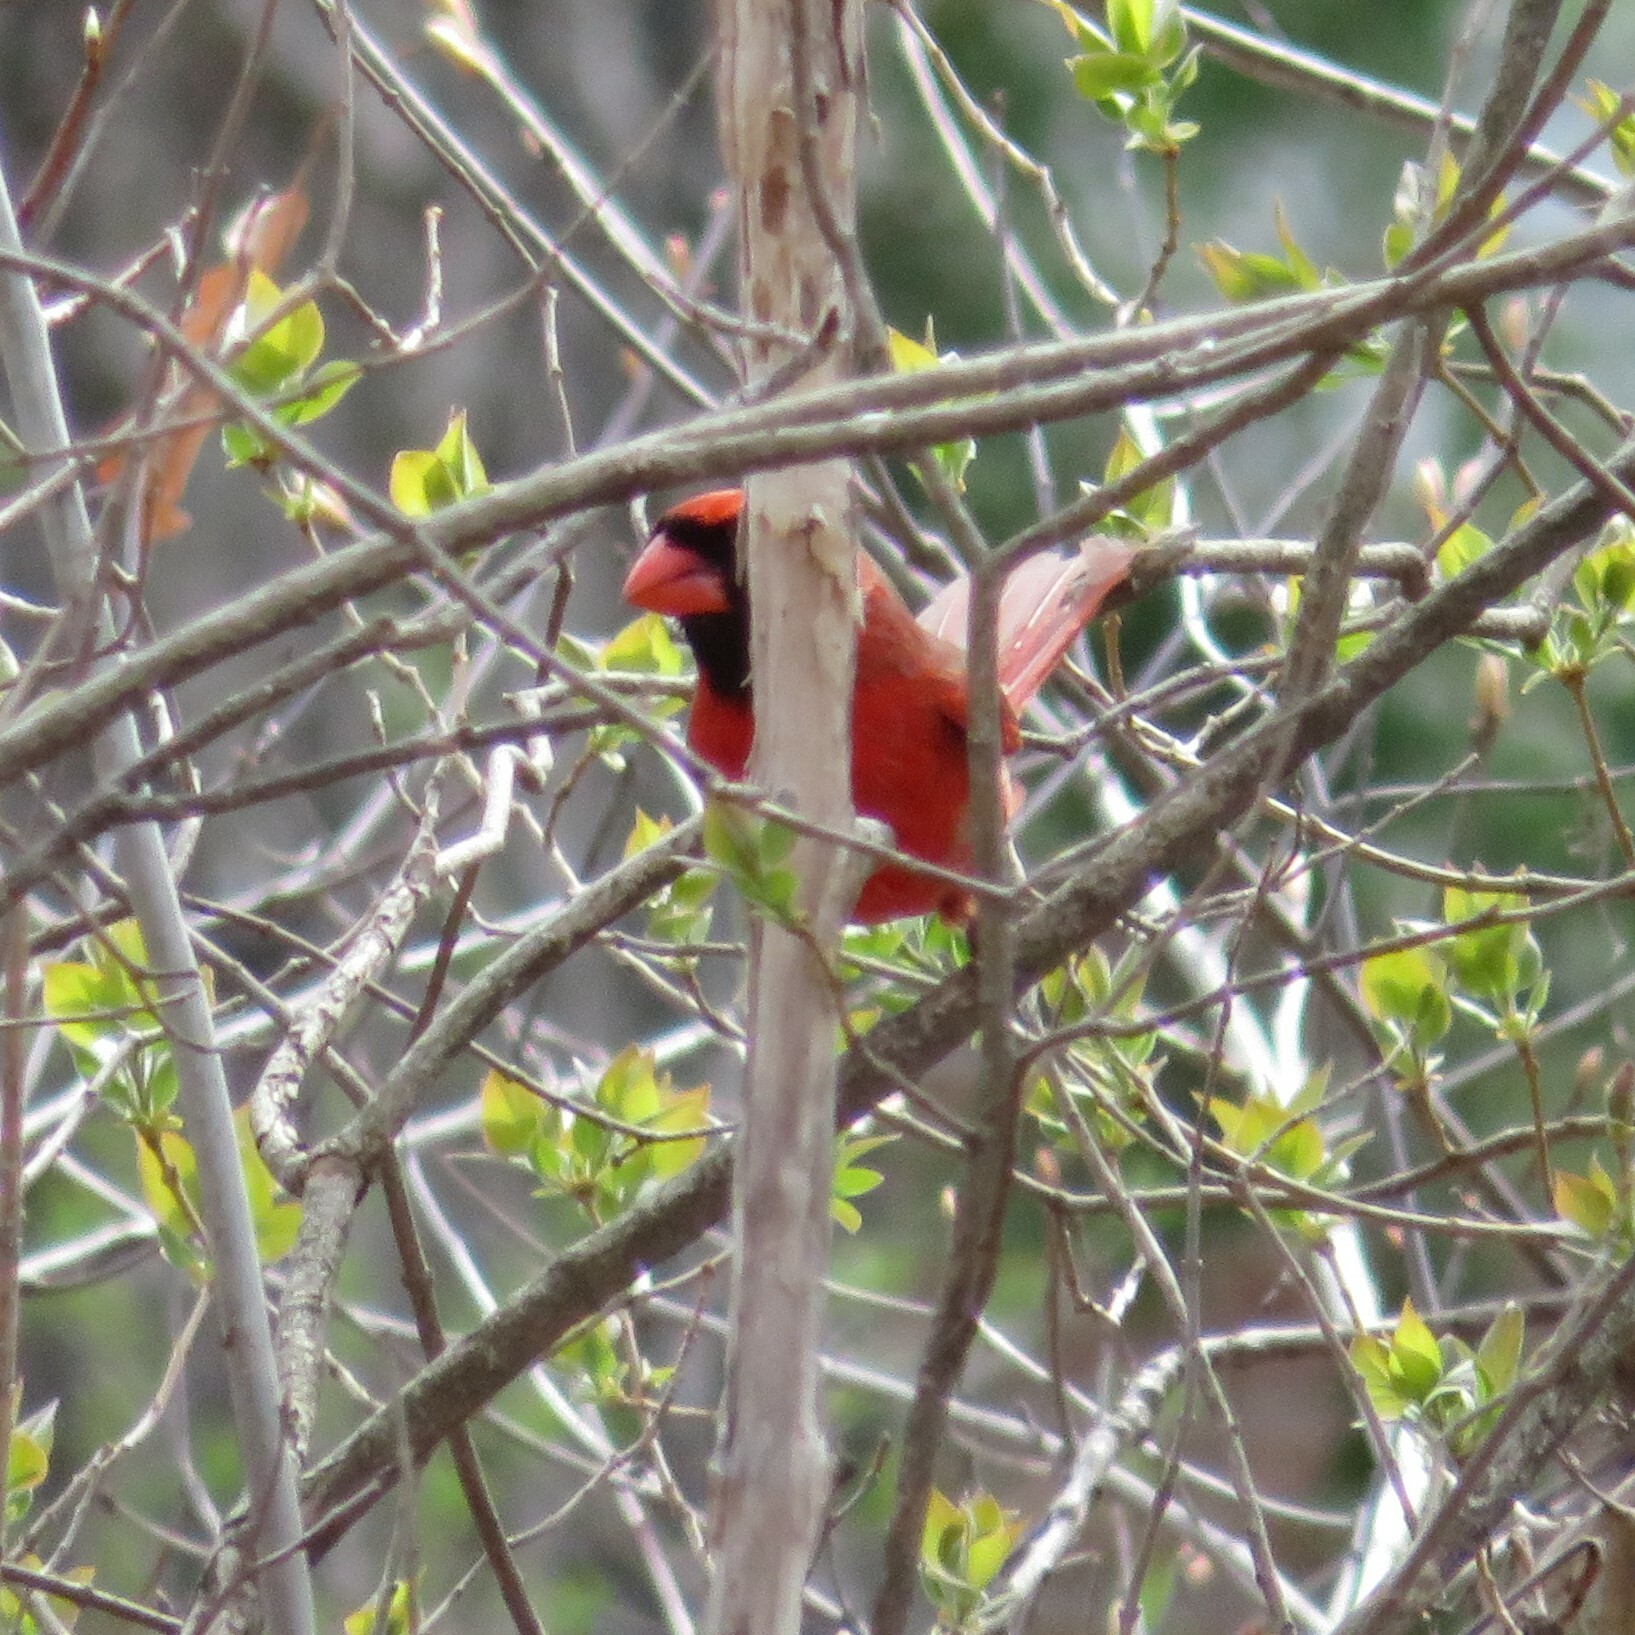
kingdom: Animalia
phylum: Chordata
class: Aves
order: Passeriformes
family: Cardinalidae
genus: Cardinalis
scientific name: Cardinalis cardinalis
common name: Northern cardinal
